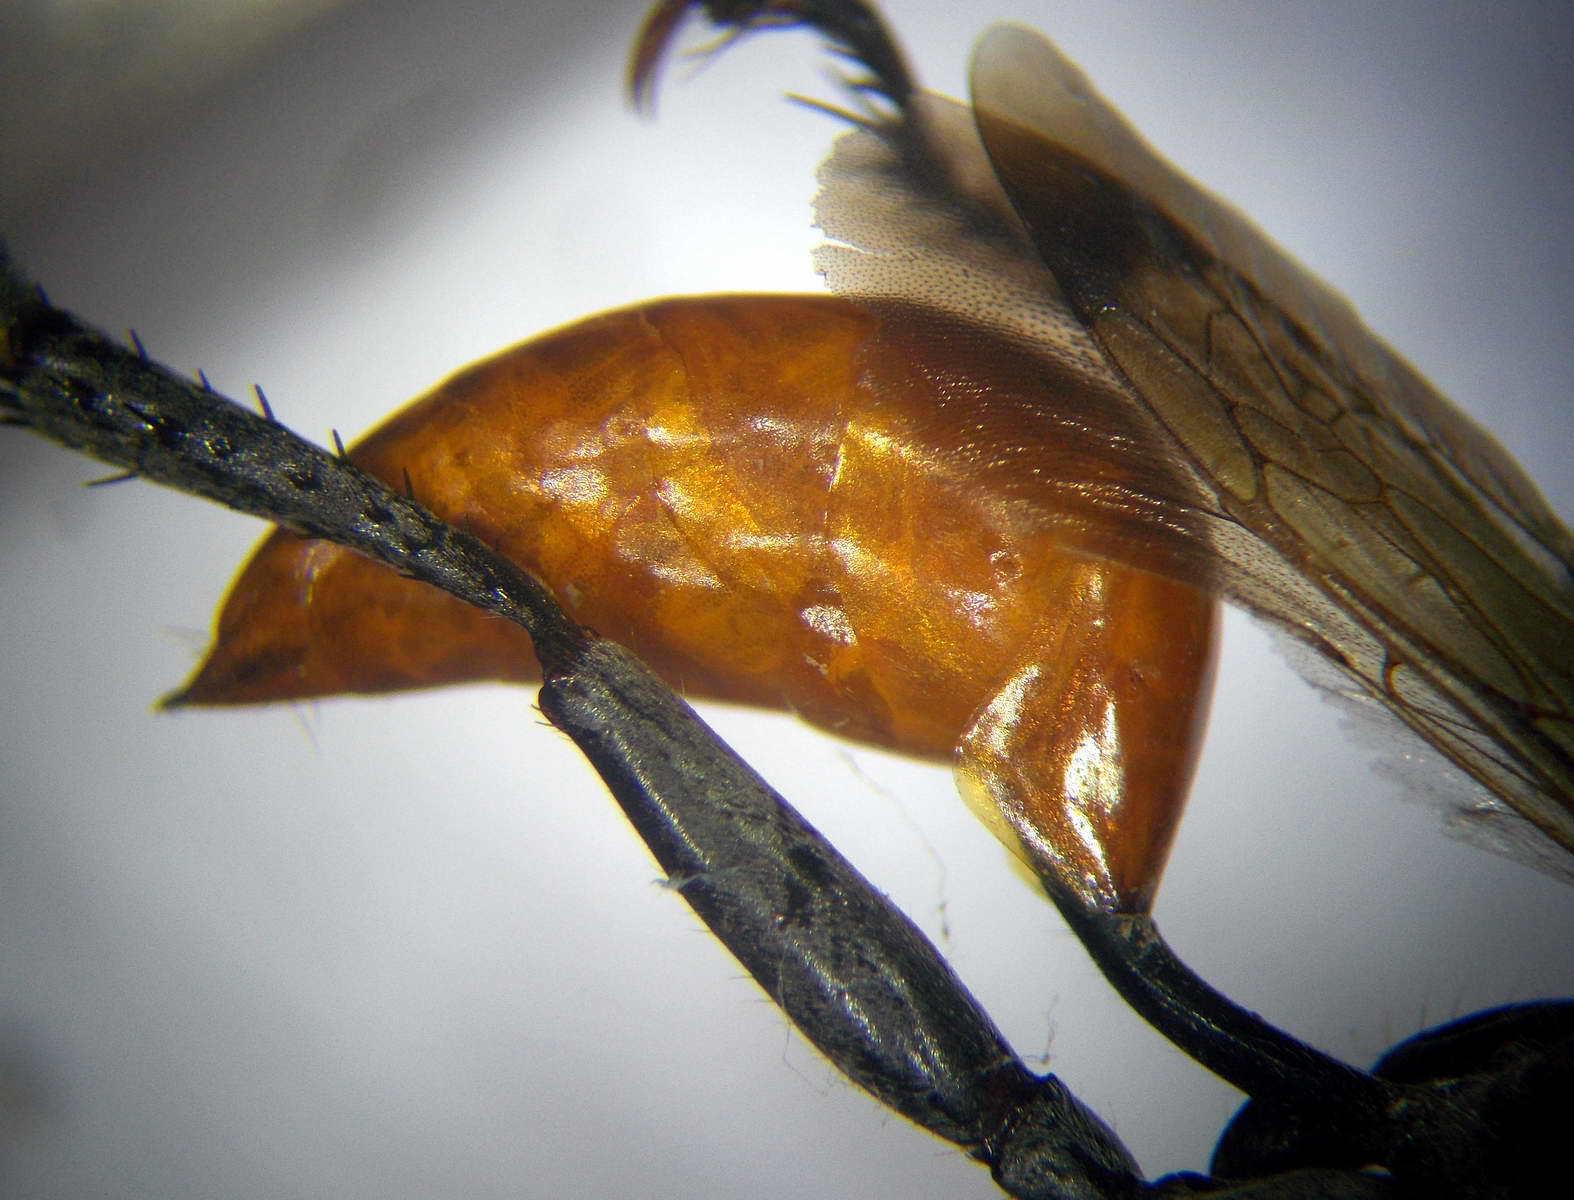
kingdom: Animalia
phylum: Arthropoda
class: Insecta
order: Hymenoptera
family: Sphecidae
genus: Palmodes
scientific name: Palmodes melanarius
